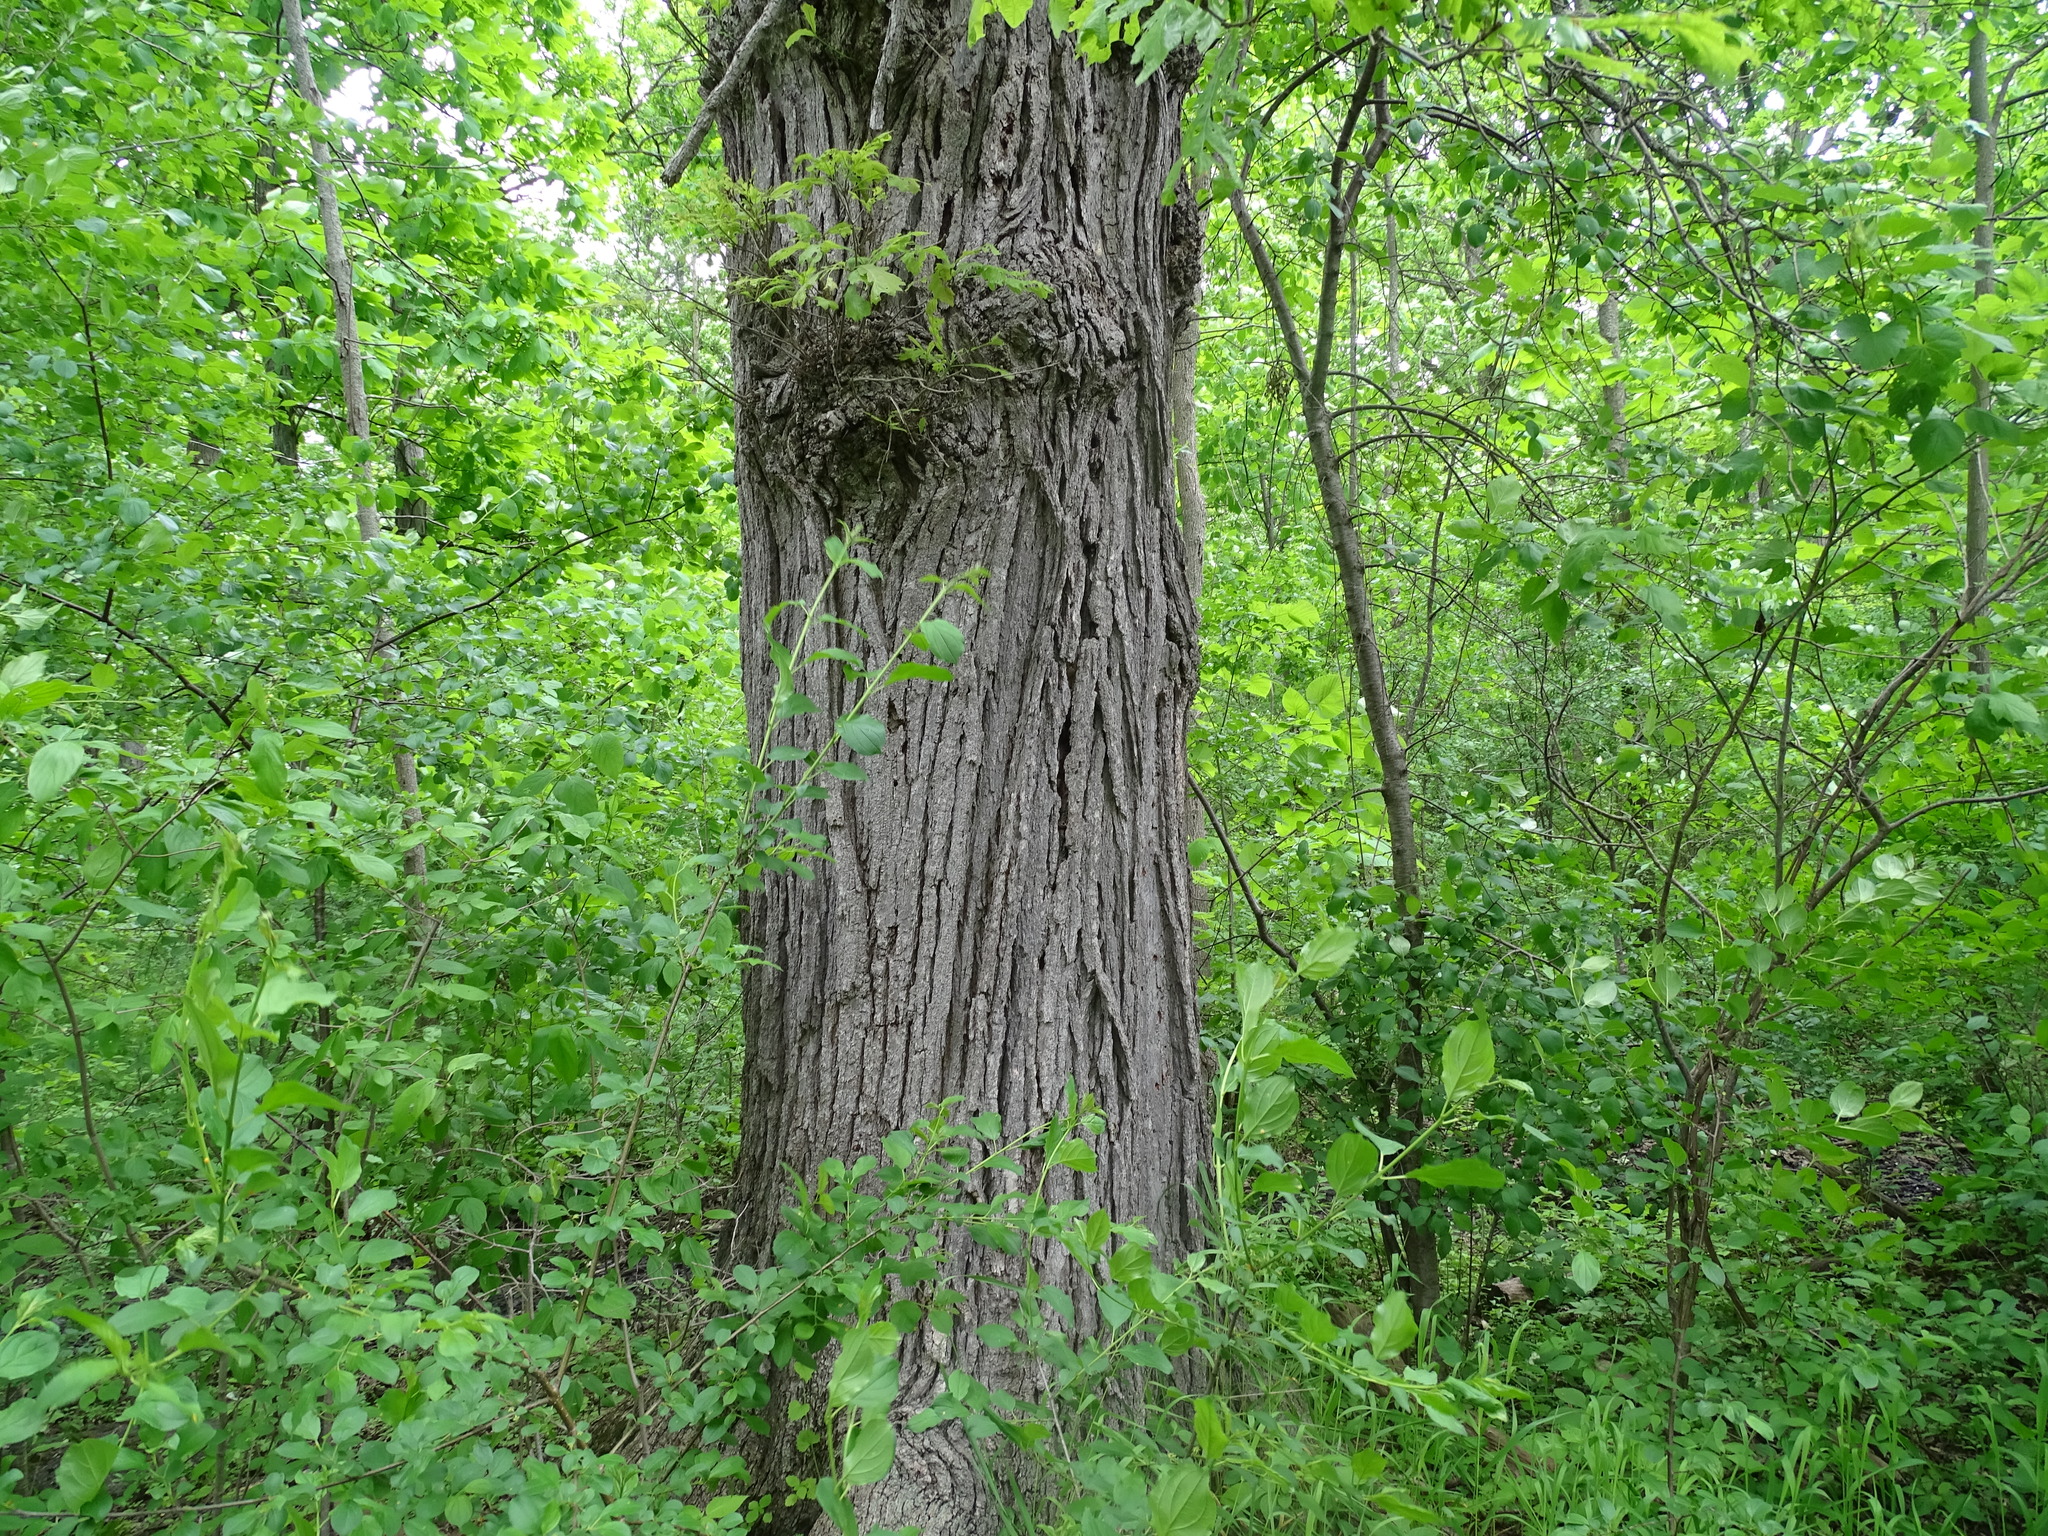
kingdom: Plantae
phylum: Tracheophyta
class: Magnoliopsida
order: Fagales
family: Fagaceae
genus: Quercus
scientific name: Quercus macrocarpa
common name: Bur oak
